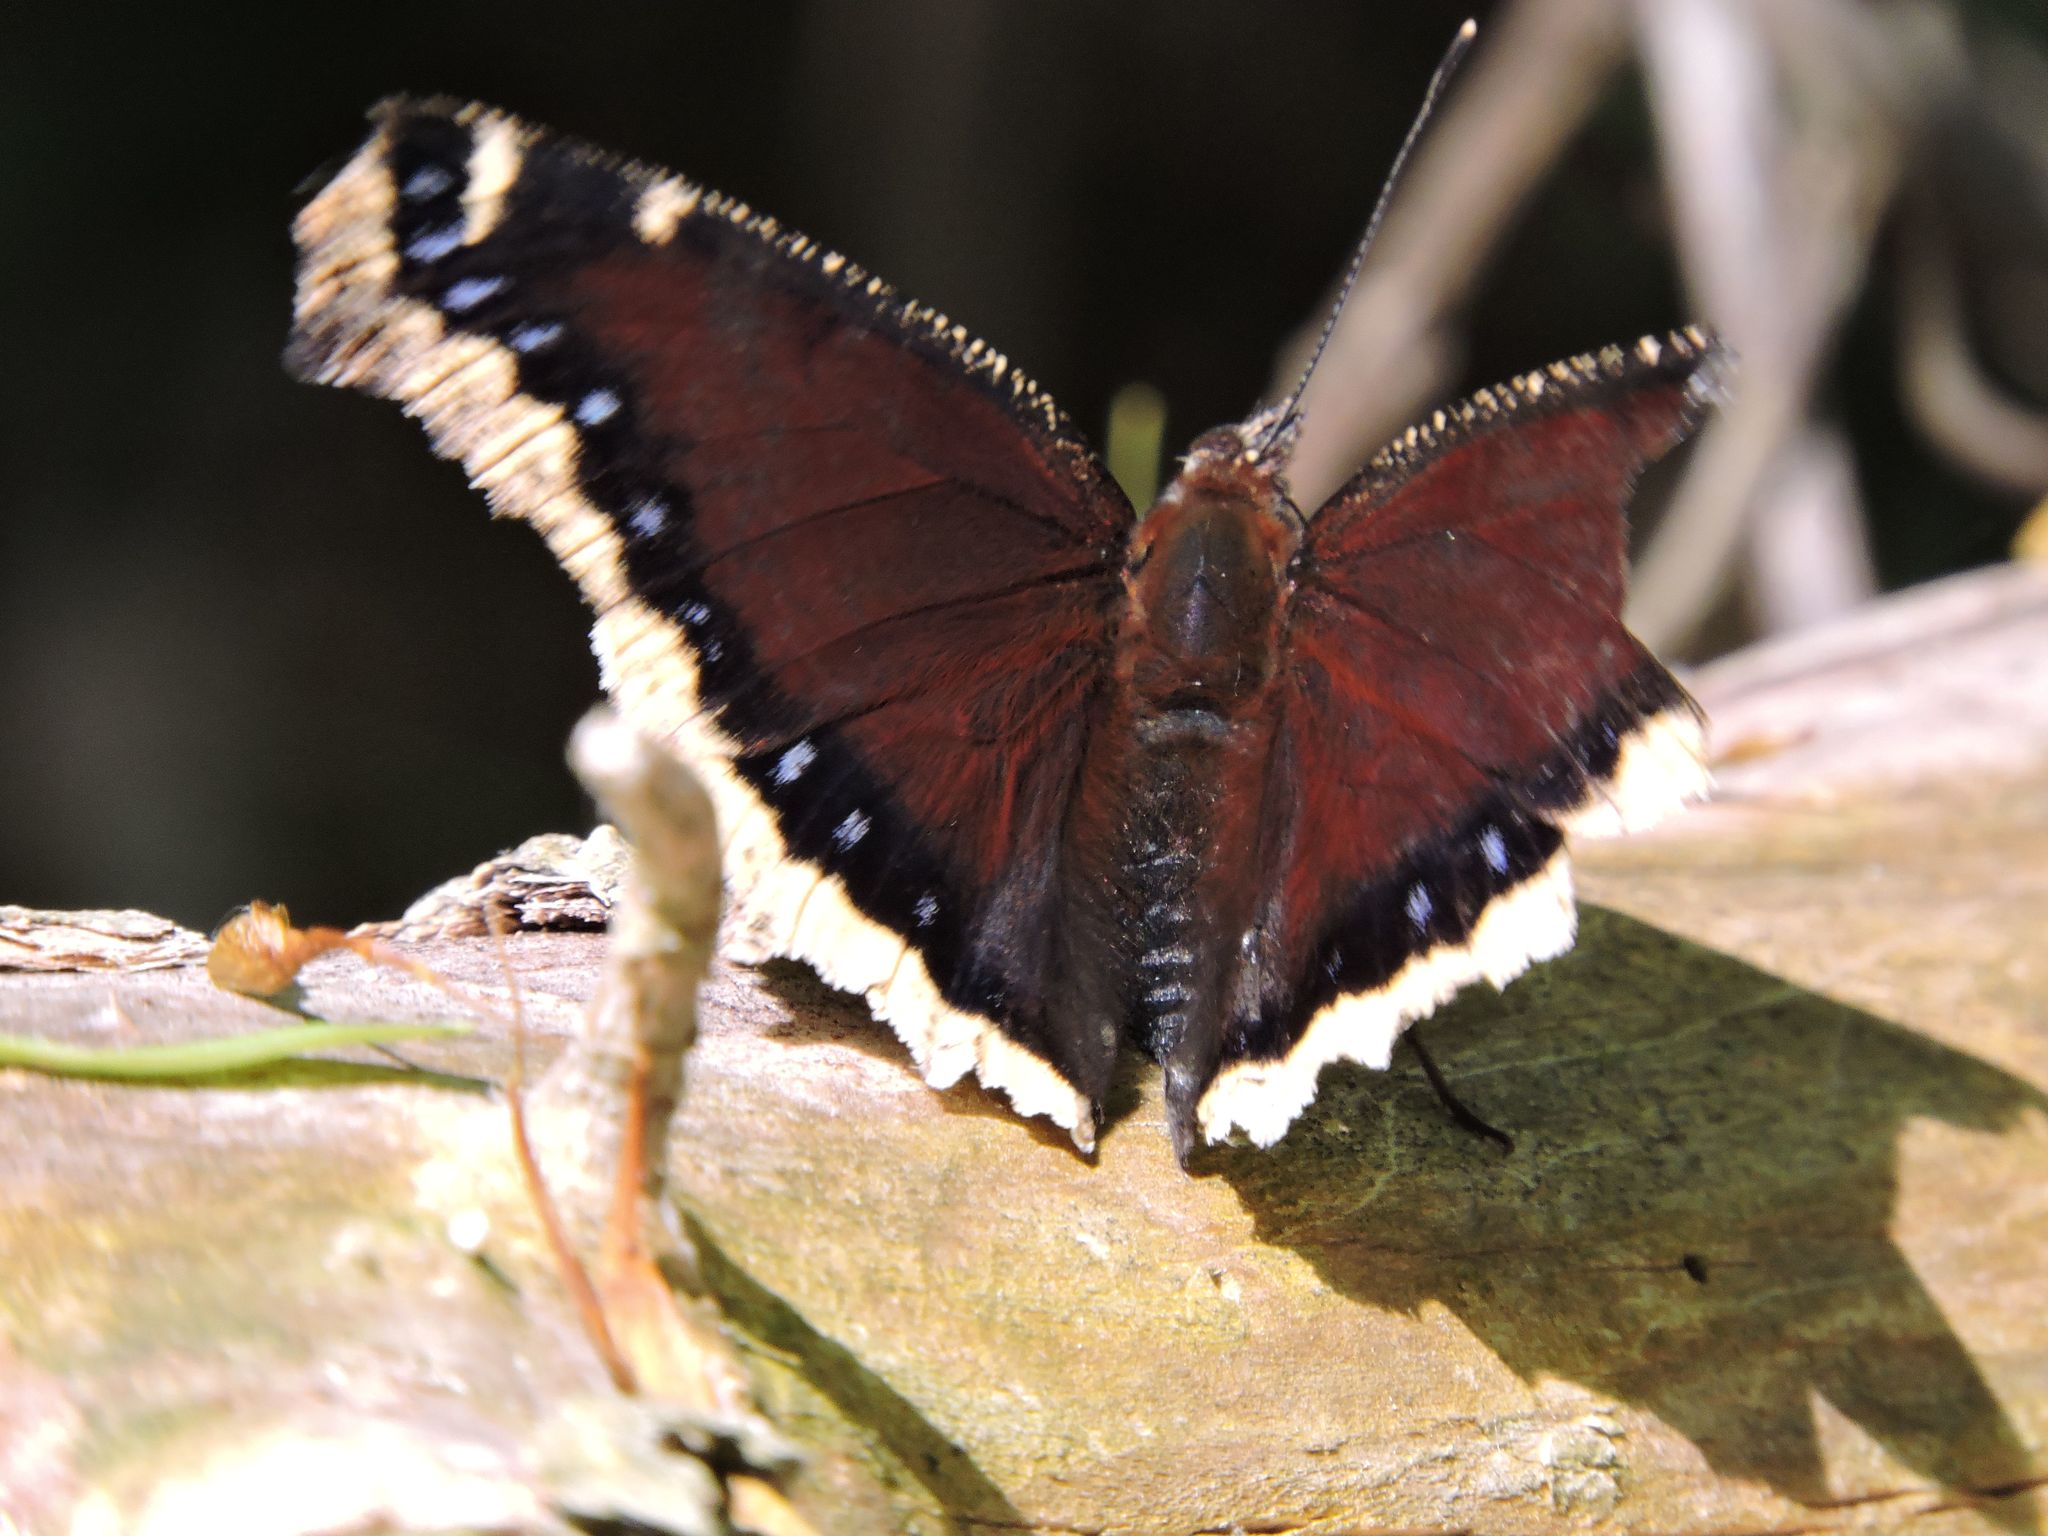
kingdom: Animalia
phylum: Arthropoda
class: Insecta
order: Lepidoptera
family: Nymphalidae
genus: Nymphalis
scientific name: Nymphalis antiopa
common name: Camberwell beauty
